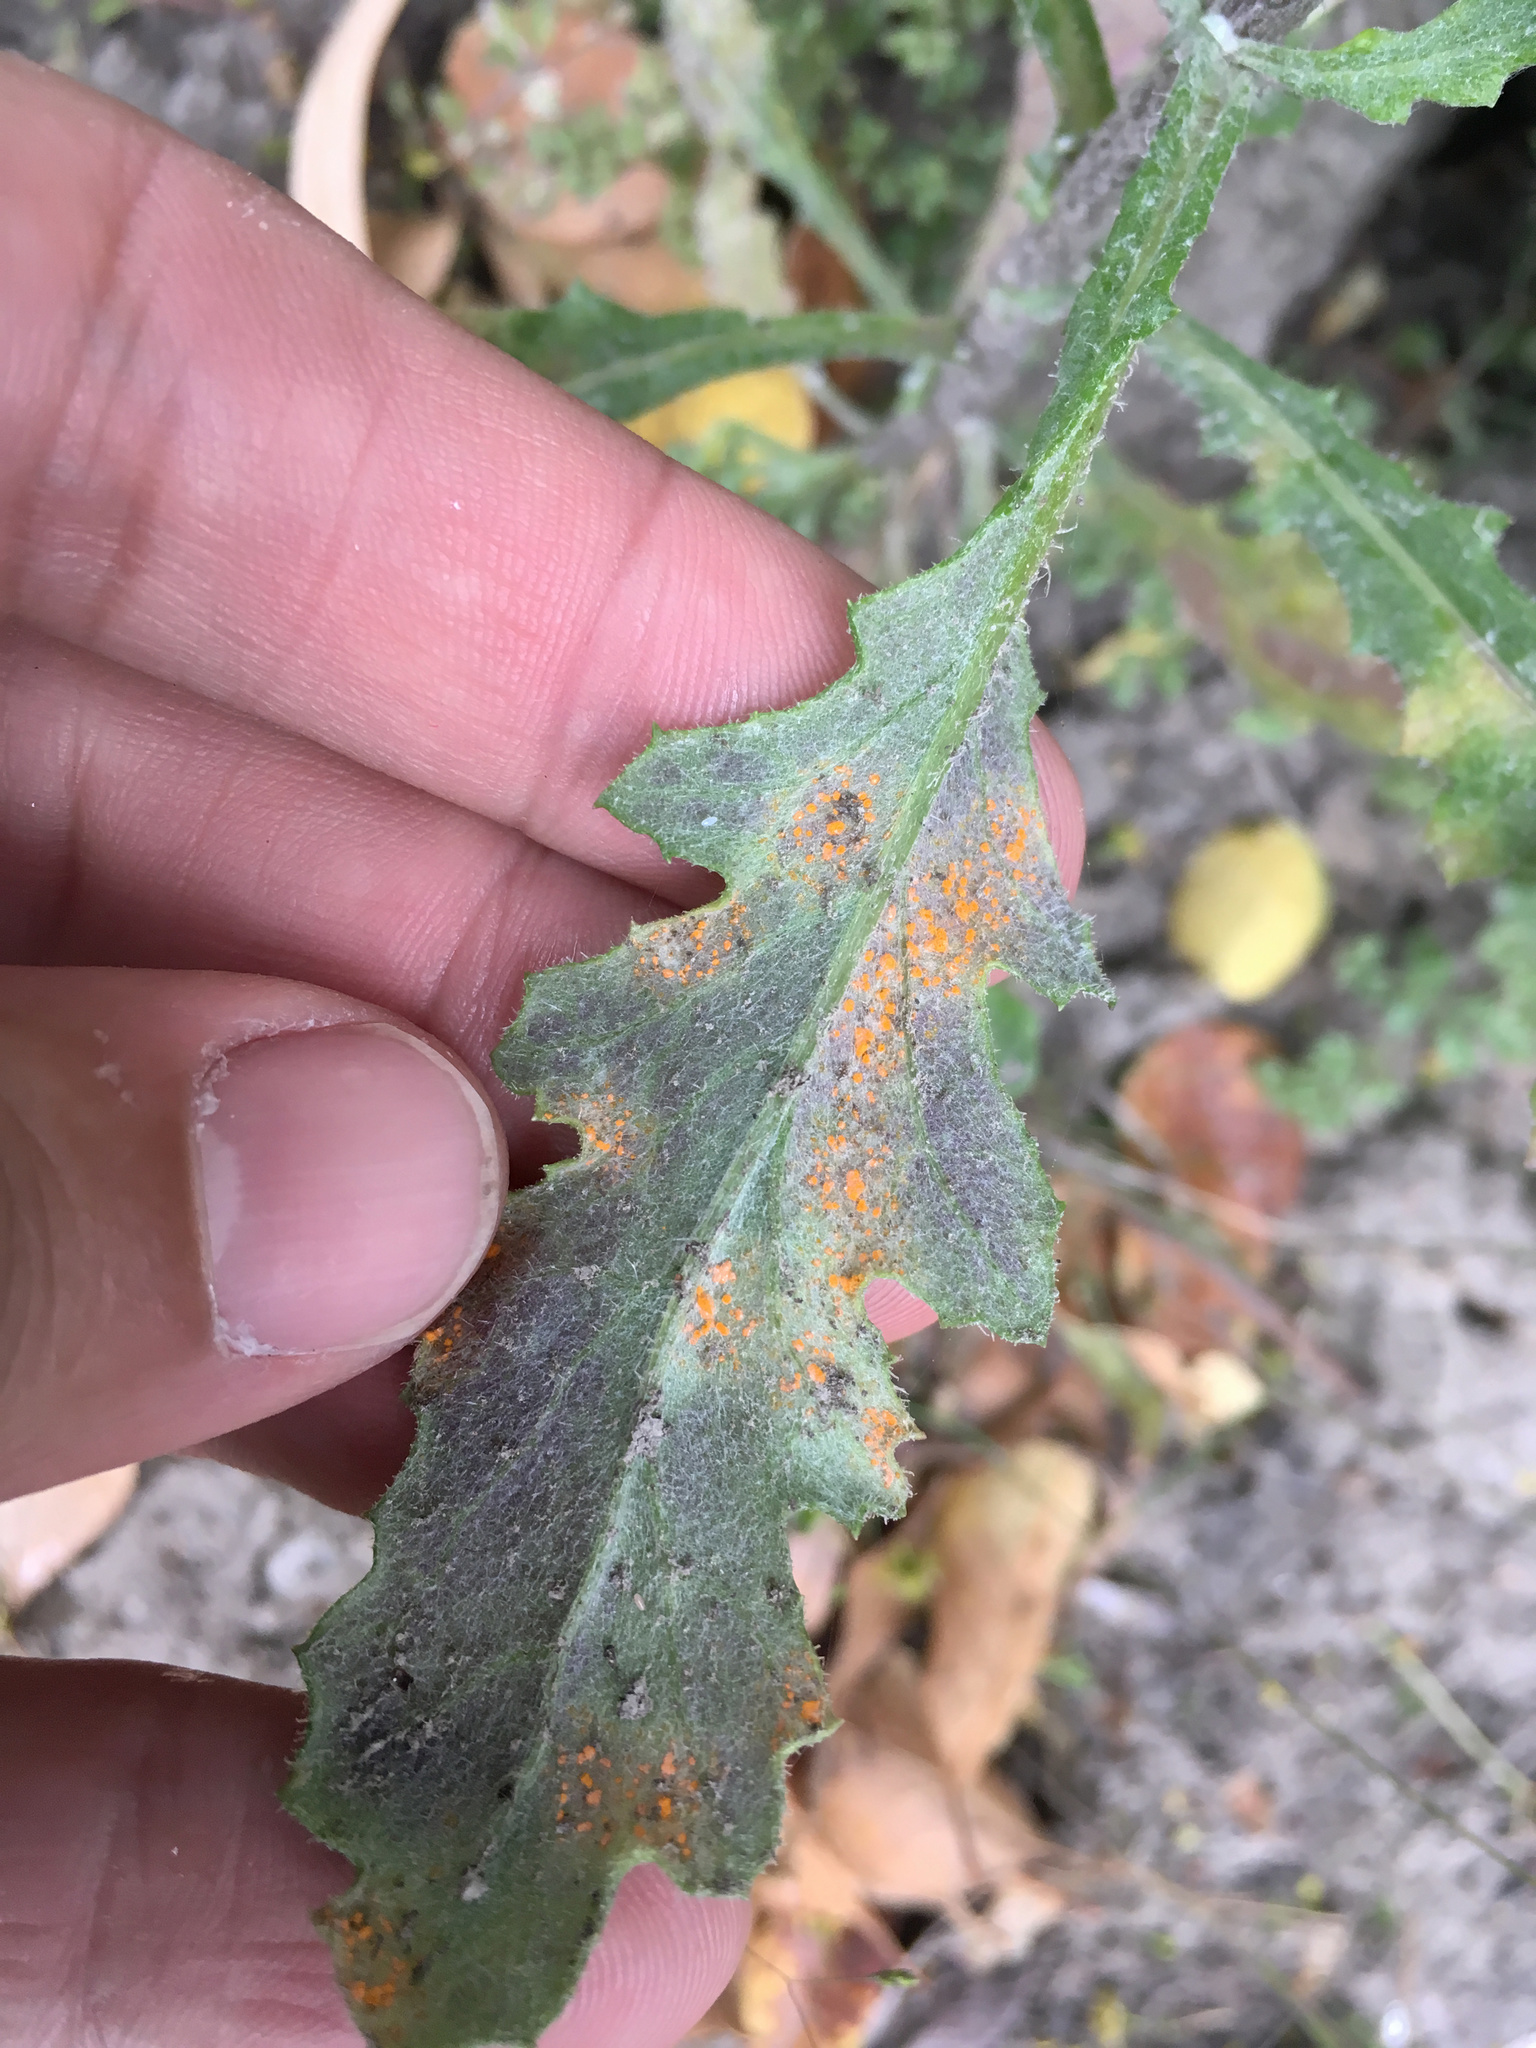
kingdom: Fungi
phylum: Basidiomycota
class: Pucciniomycetes
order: Pucciniales
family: Coleosporiaceae
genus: Coleosporium
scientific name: Coleosporium tussilaginis
